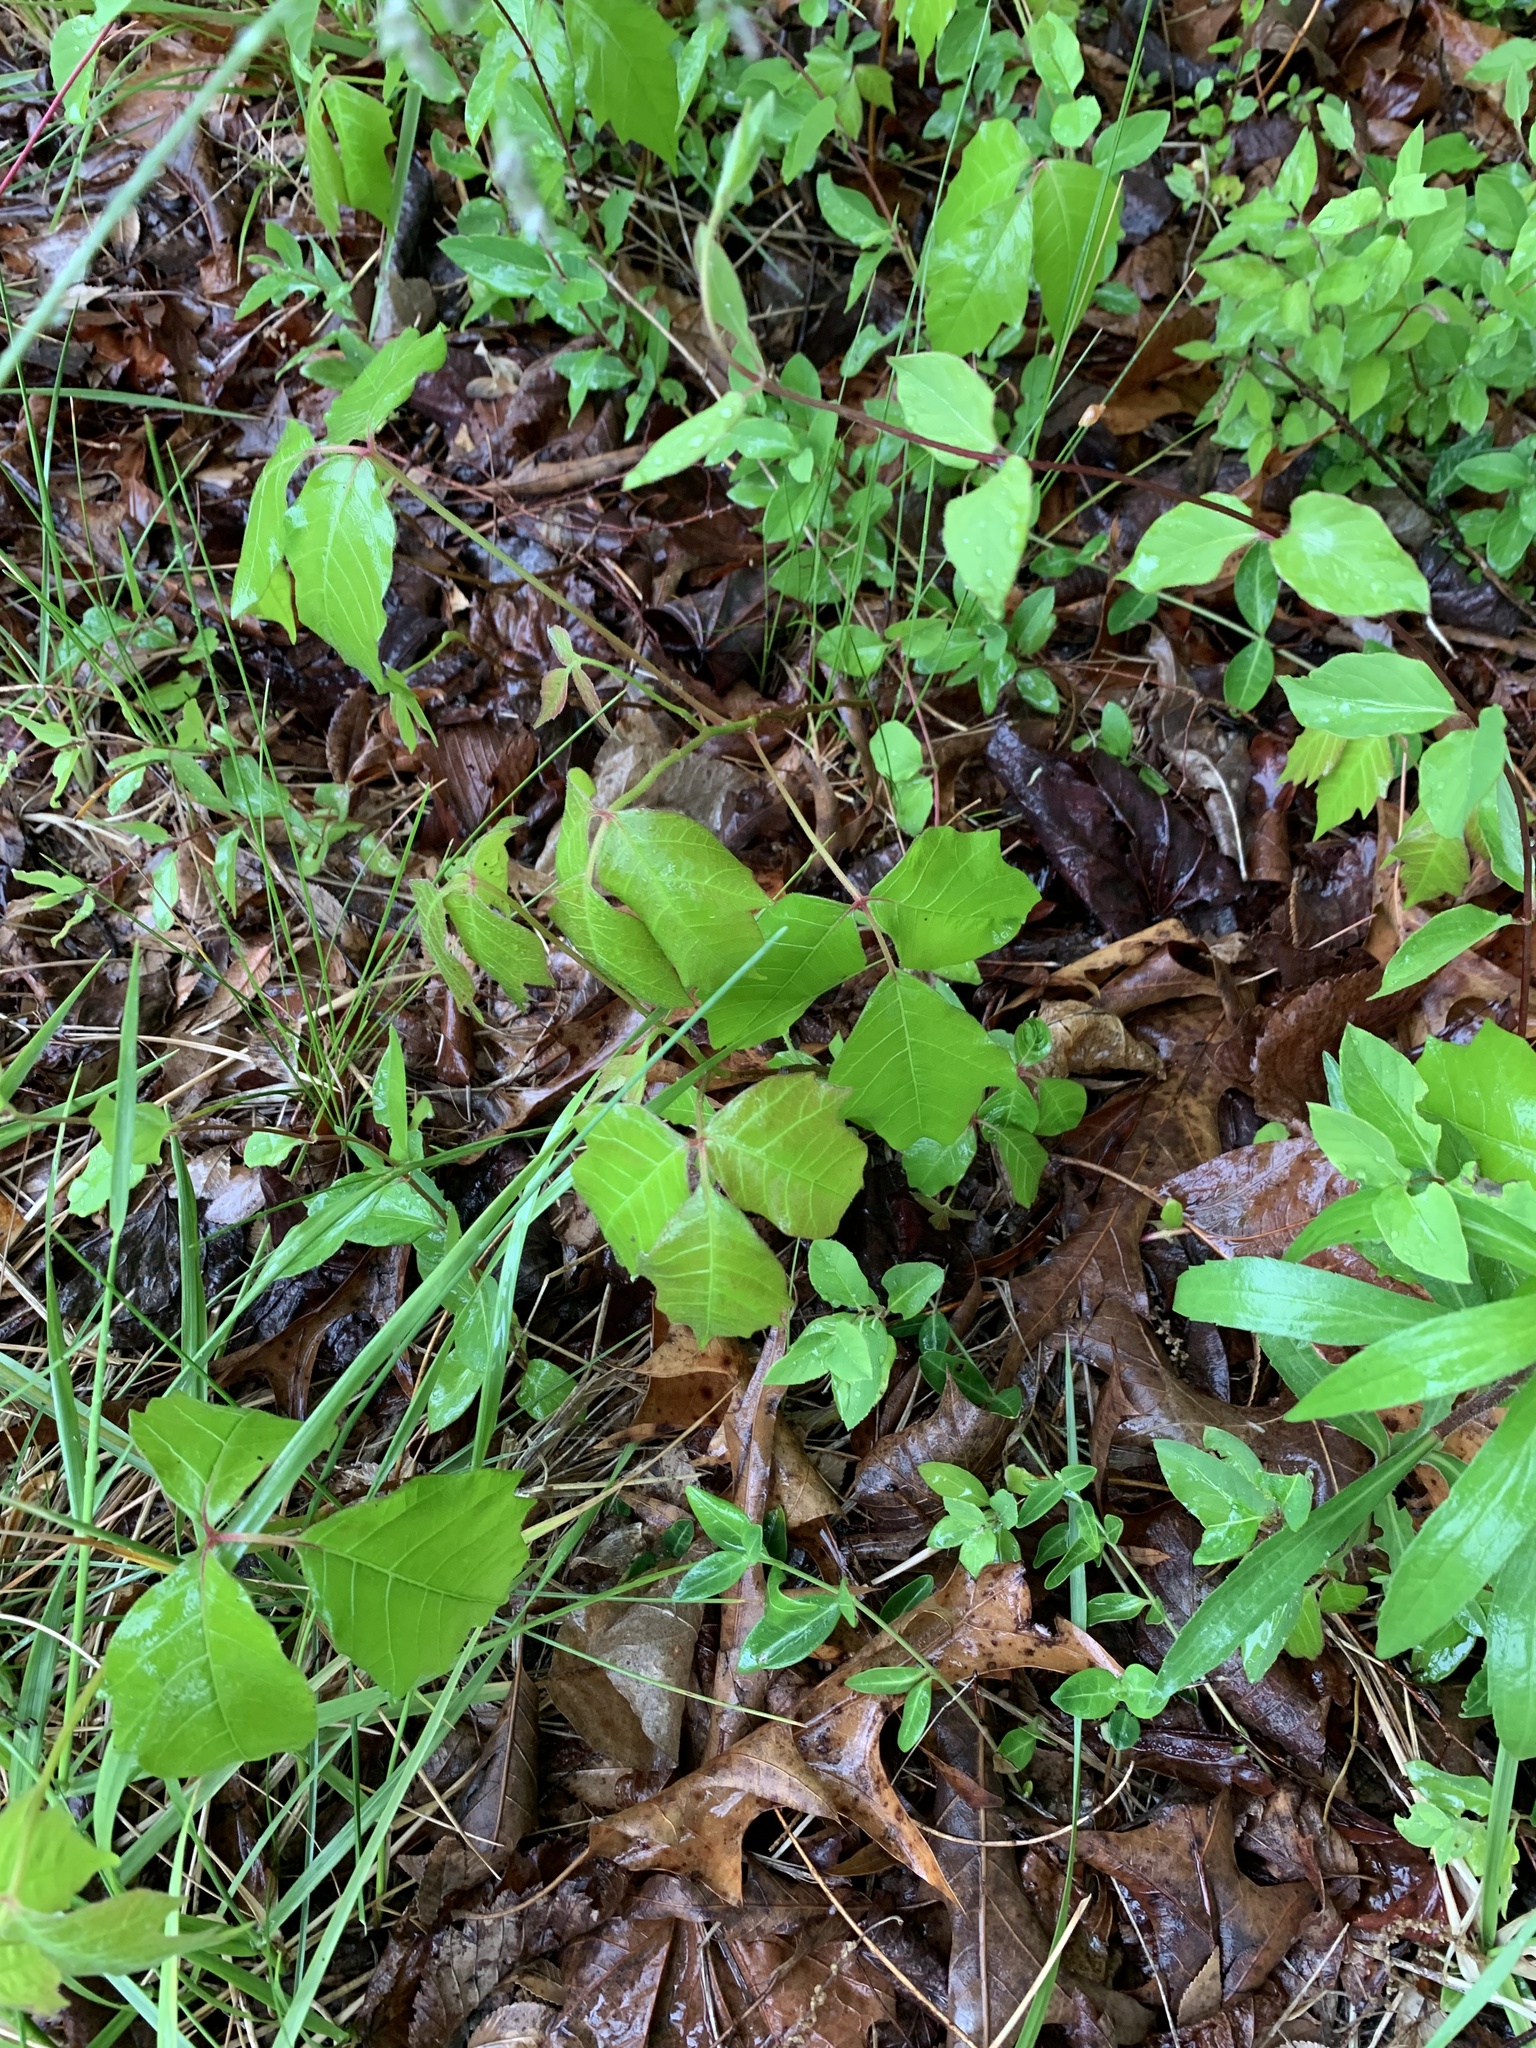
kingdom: Plantae
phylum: Tracheophyta
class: Magnoliopsida
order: Sapindales
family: Anacardiaceae
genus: Toxicodendron
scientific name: Toxicodendron radicans
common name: Poison ivy
